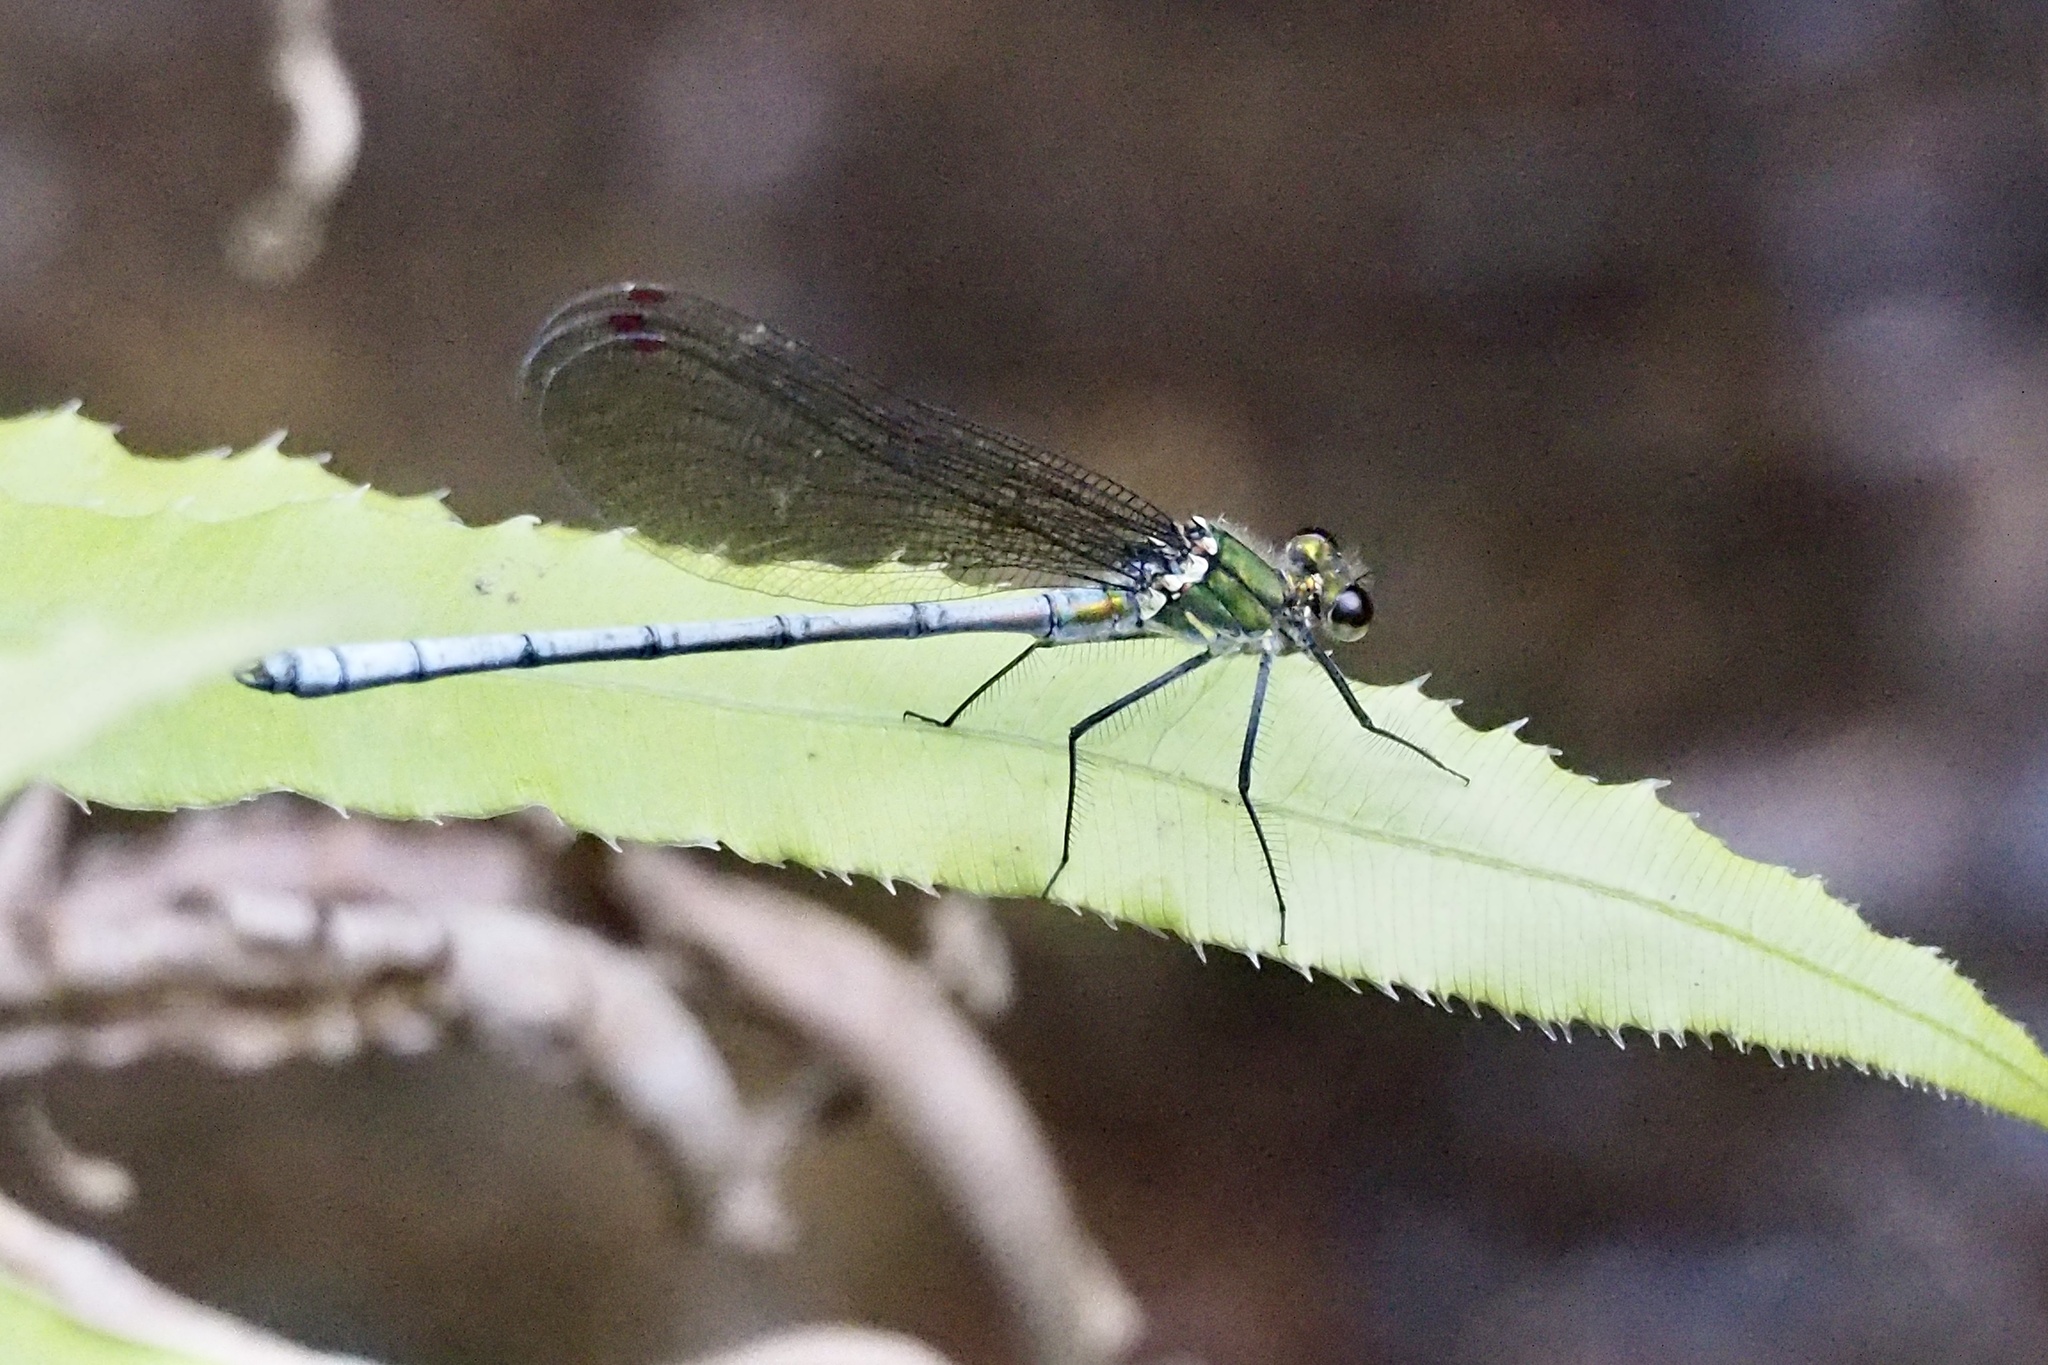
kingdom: Animalia
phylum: Arthropoda
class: Insecta
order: Odonata
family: Calopterygidae
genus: Mnais
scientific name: Mnais costalis
